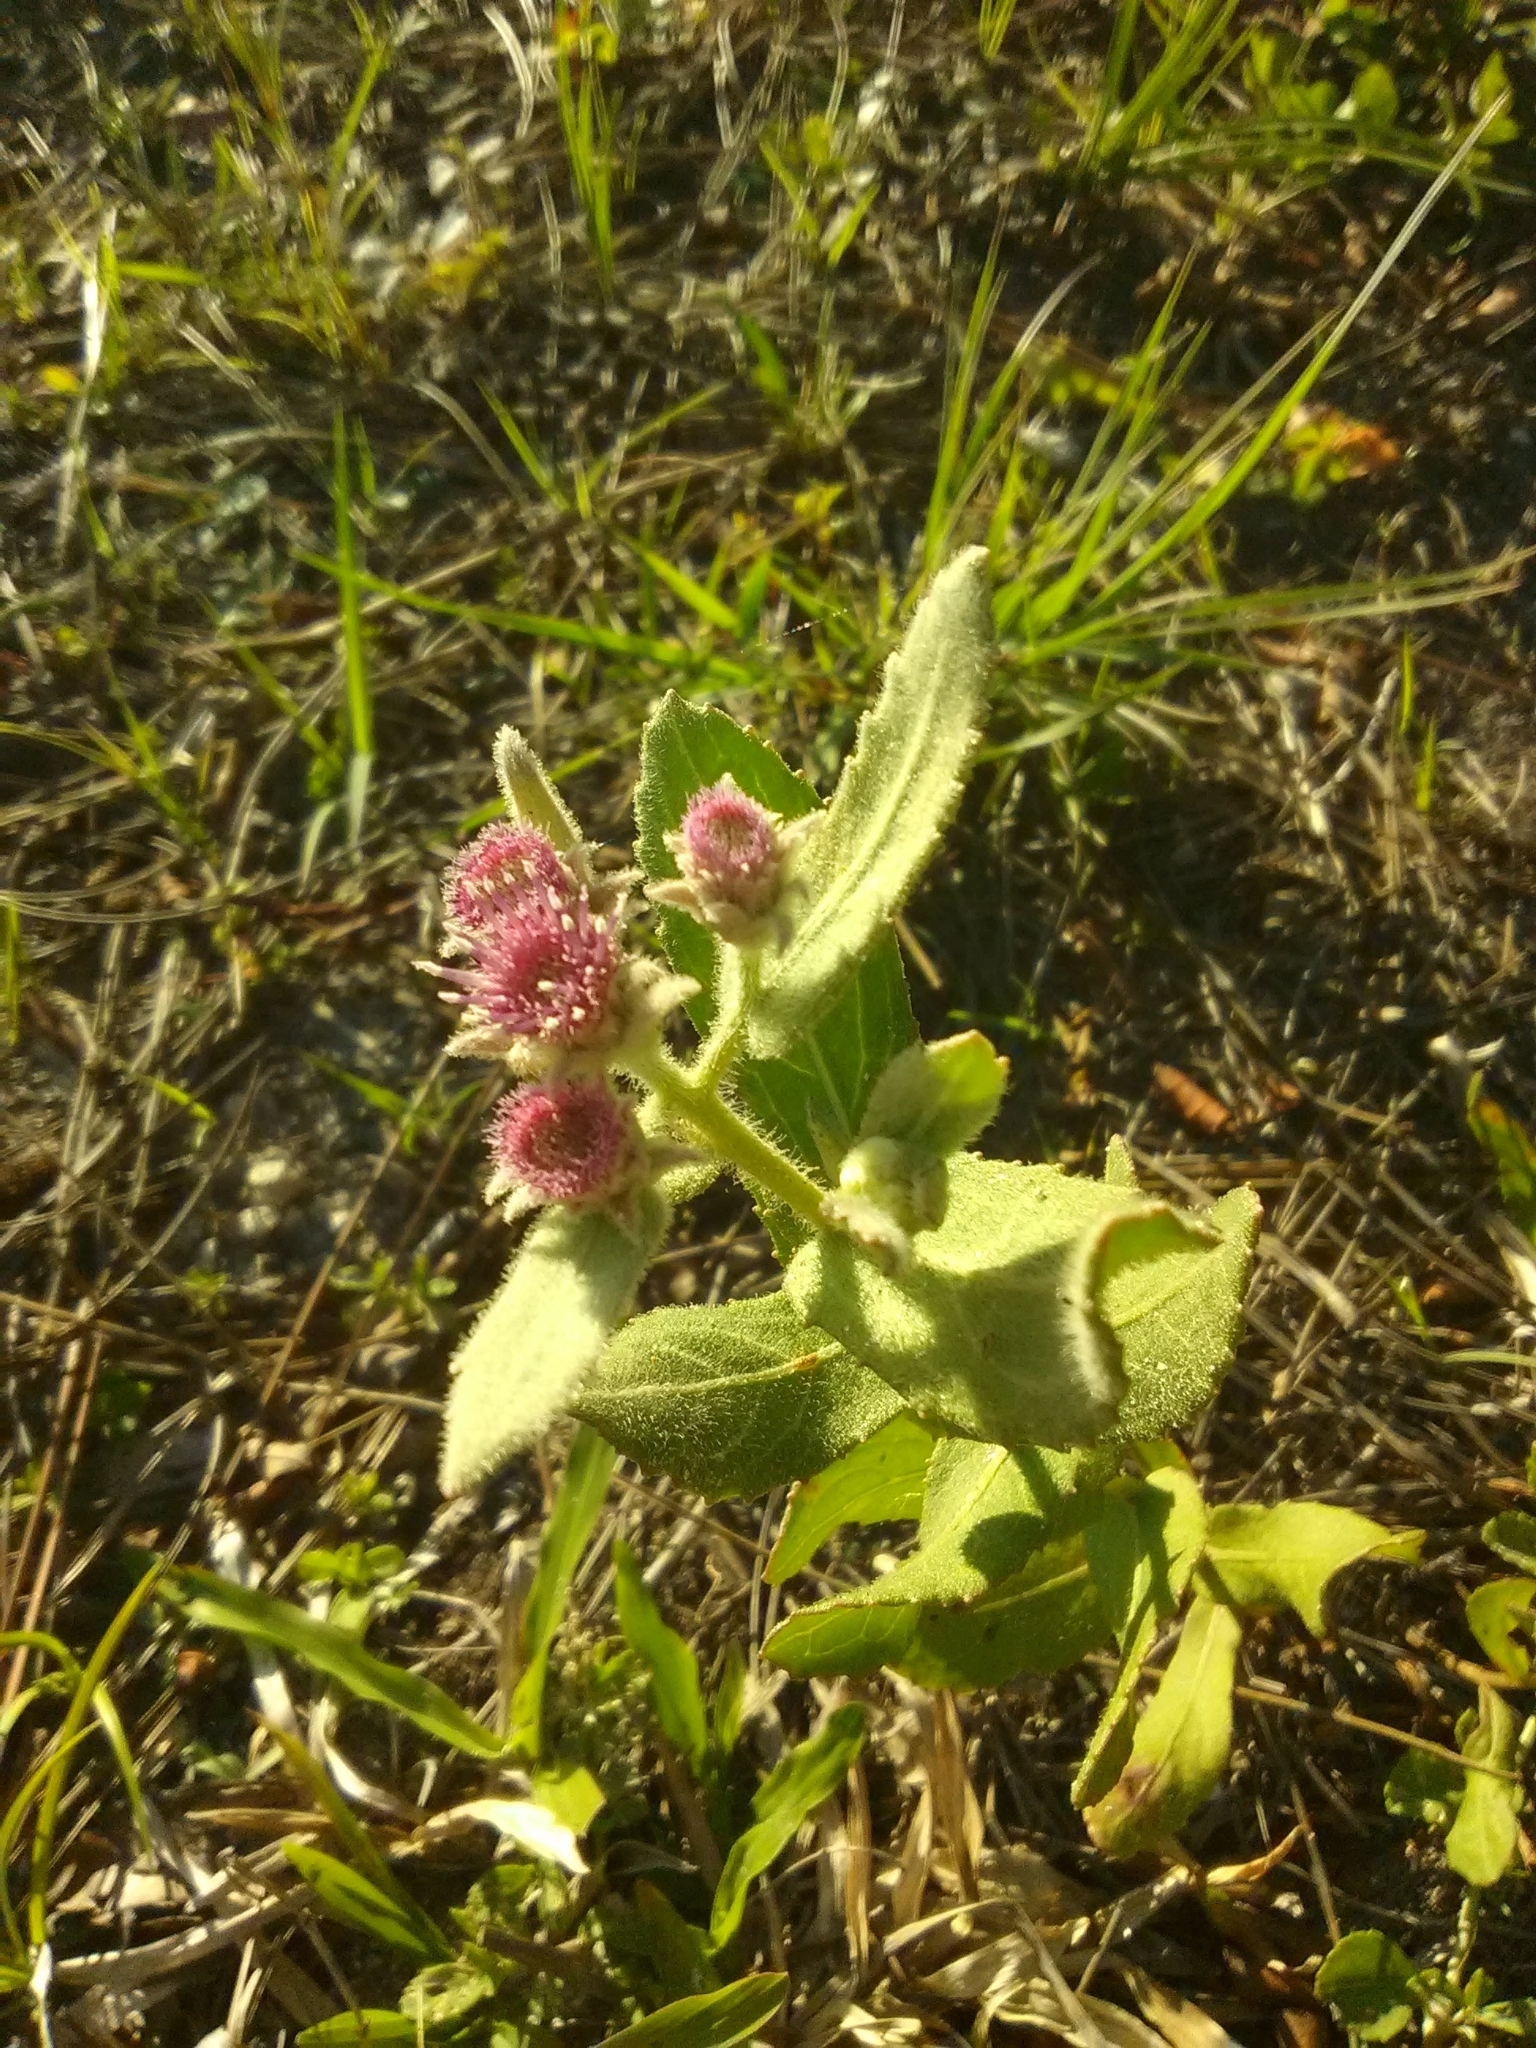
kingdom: Plantae
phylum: Tracheophyta
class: Magnoliopsida
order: Asterales
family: Asteraceae
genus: Pluchea
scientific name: Pluchea baccharis
